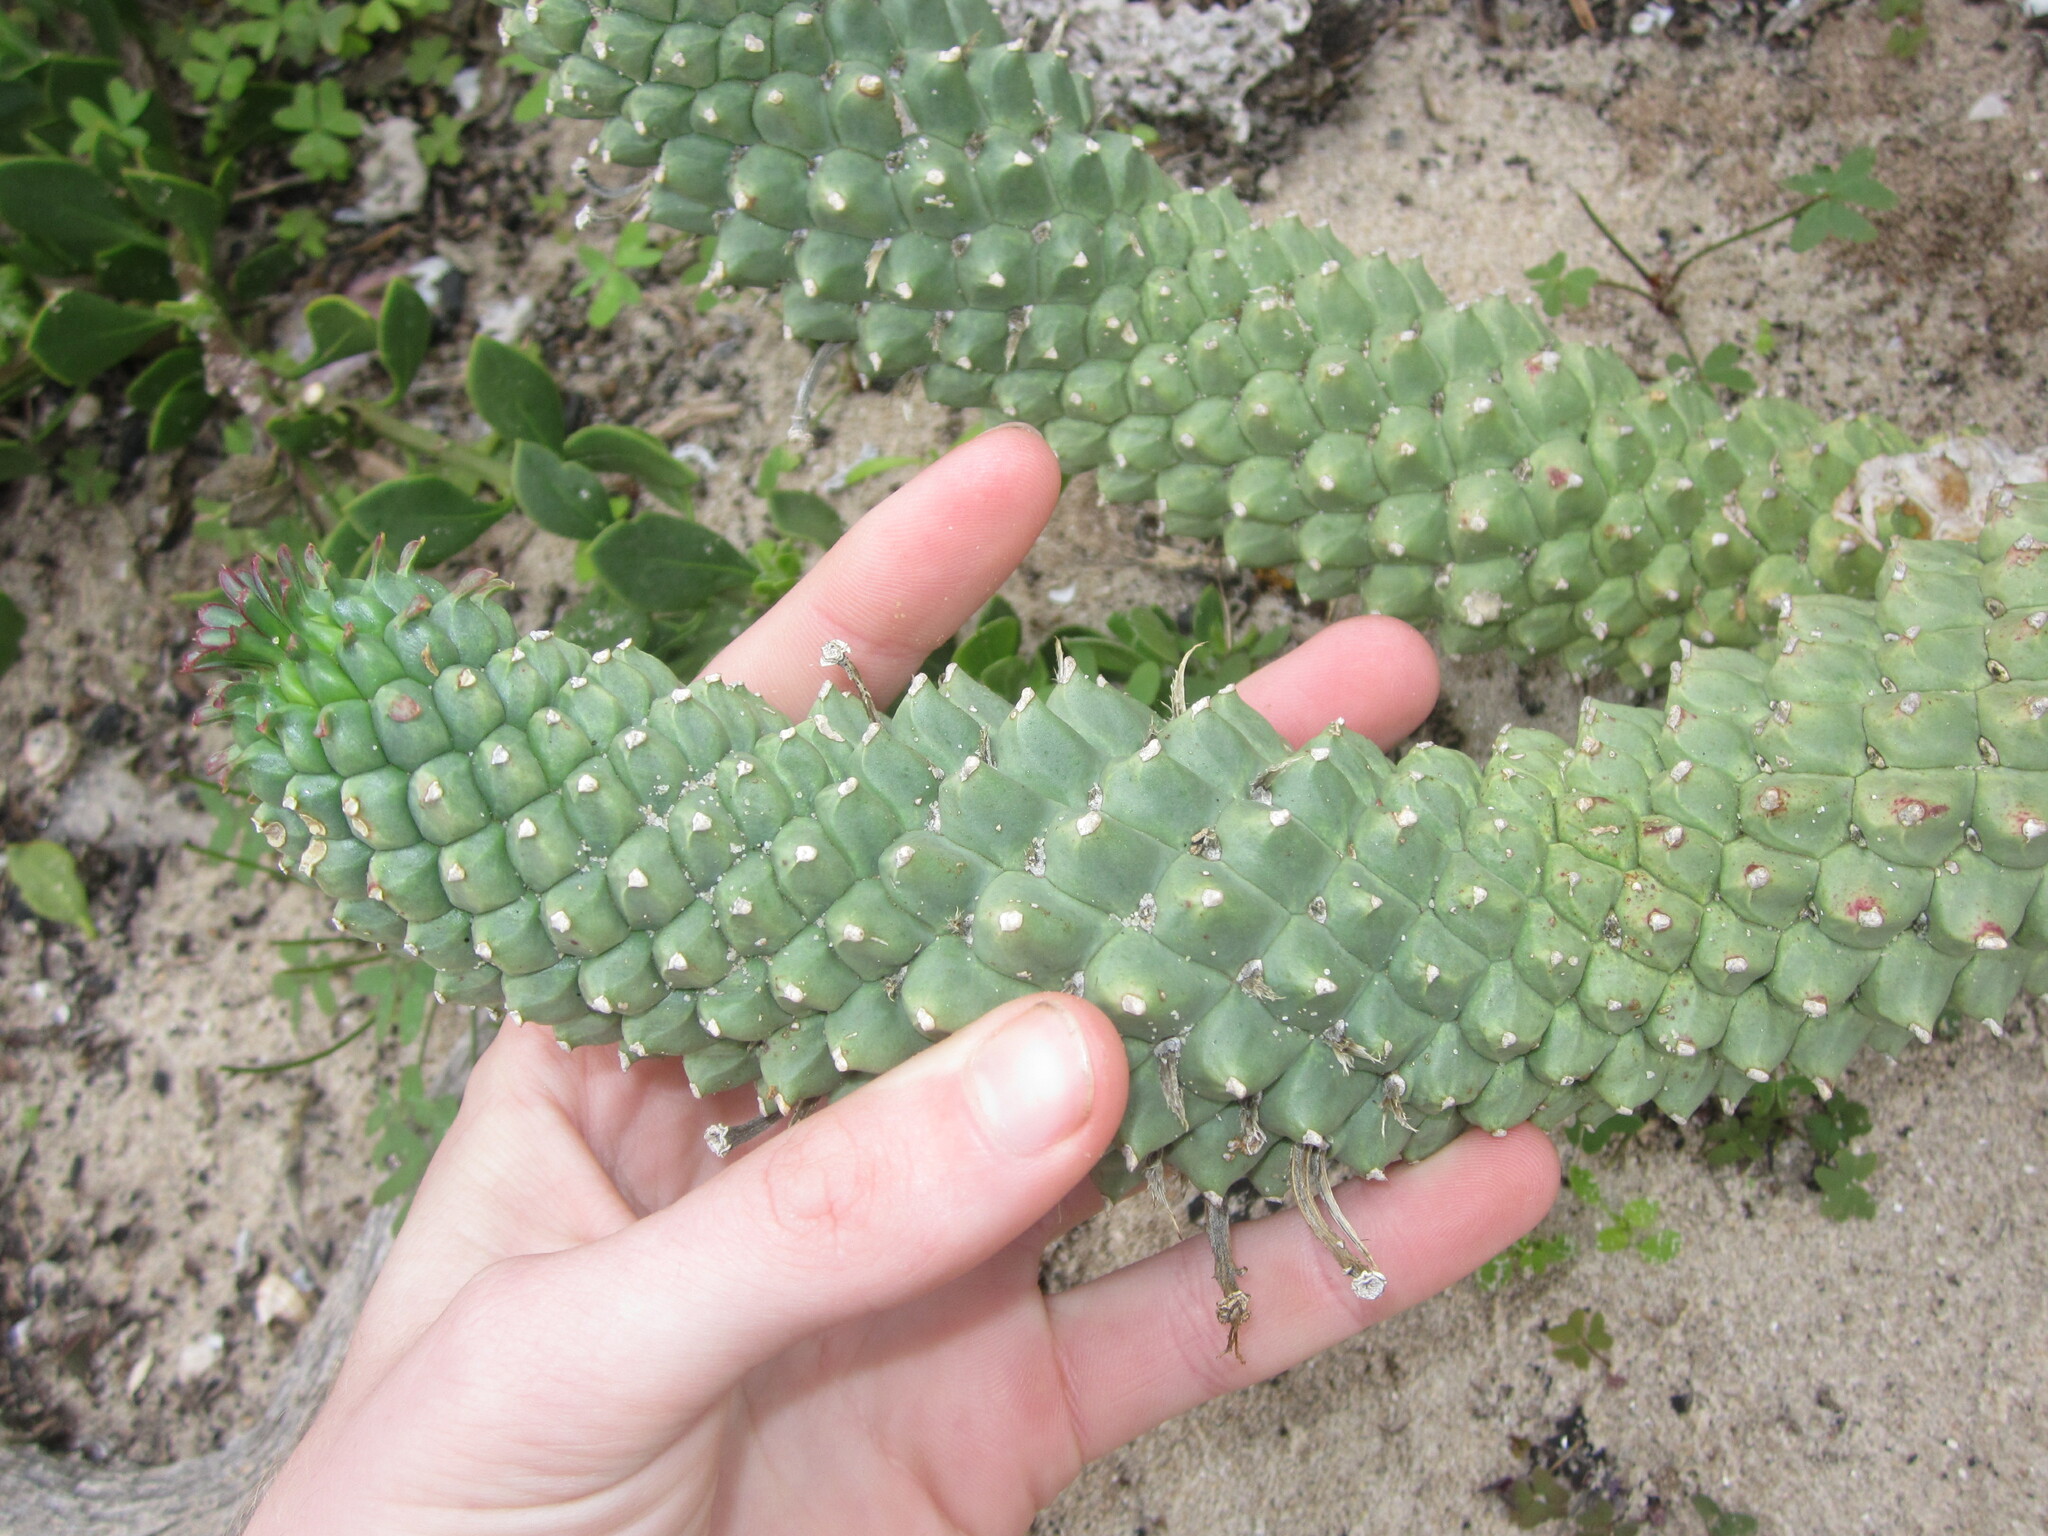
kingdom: Plantae
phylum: Tracheophyta
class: Magnoliopsida
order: Malpighiales
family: Euphorbiaceae
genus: Euphorbia
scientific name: Euphorbia caput-medusae
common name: Medusa's-head
